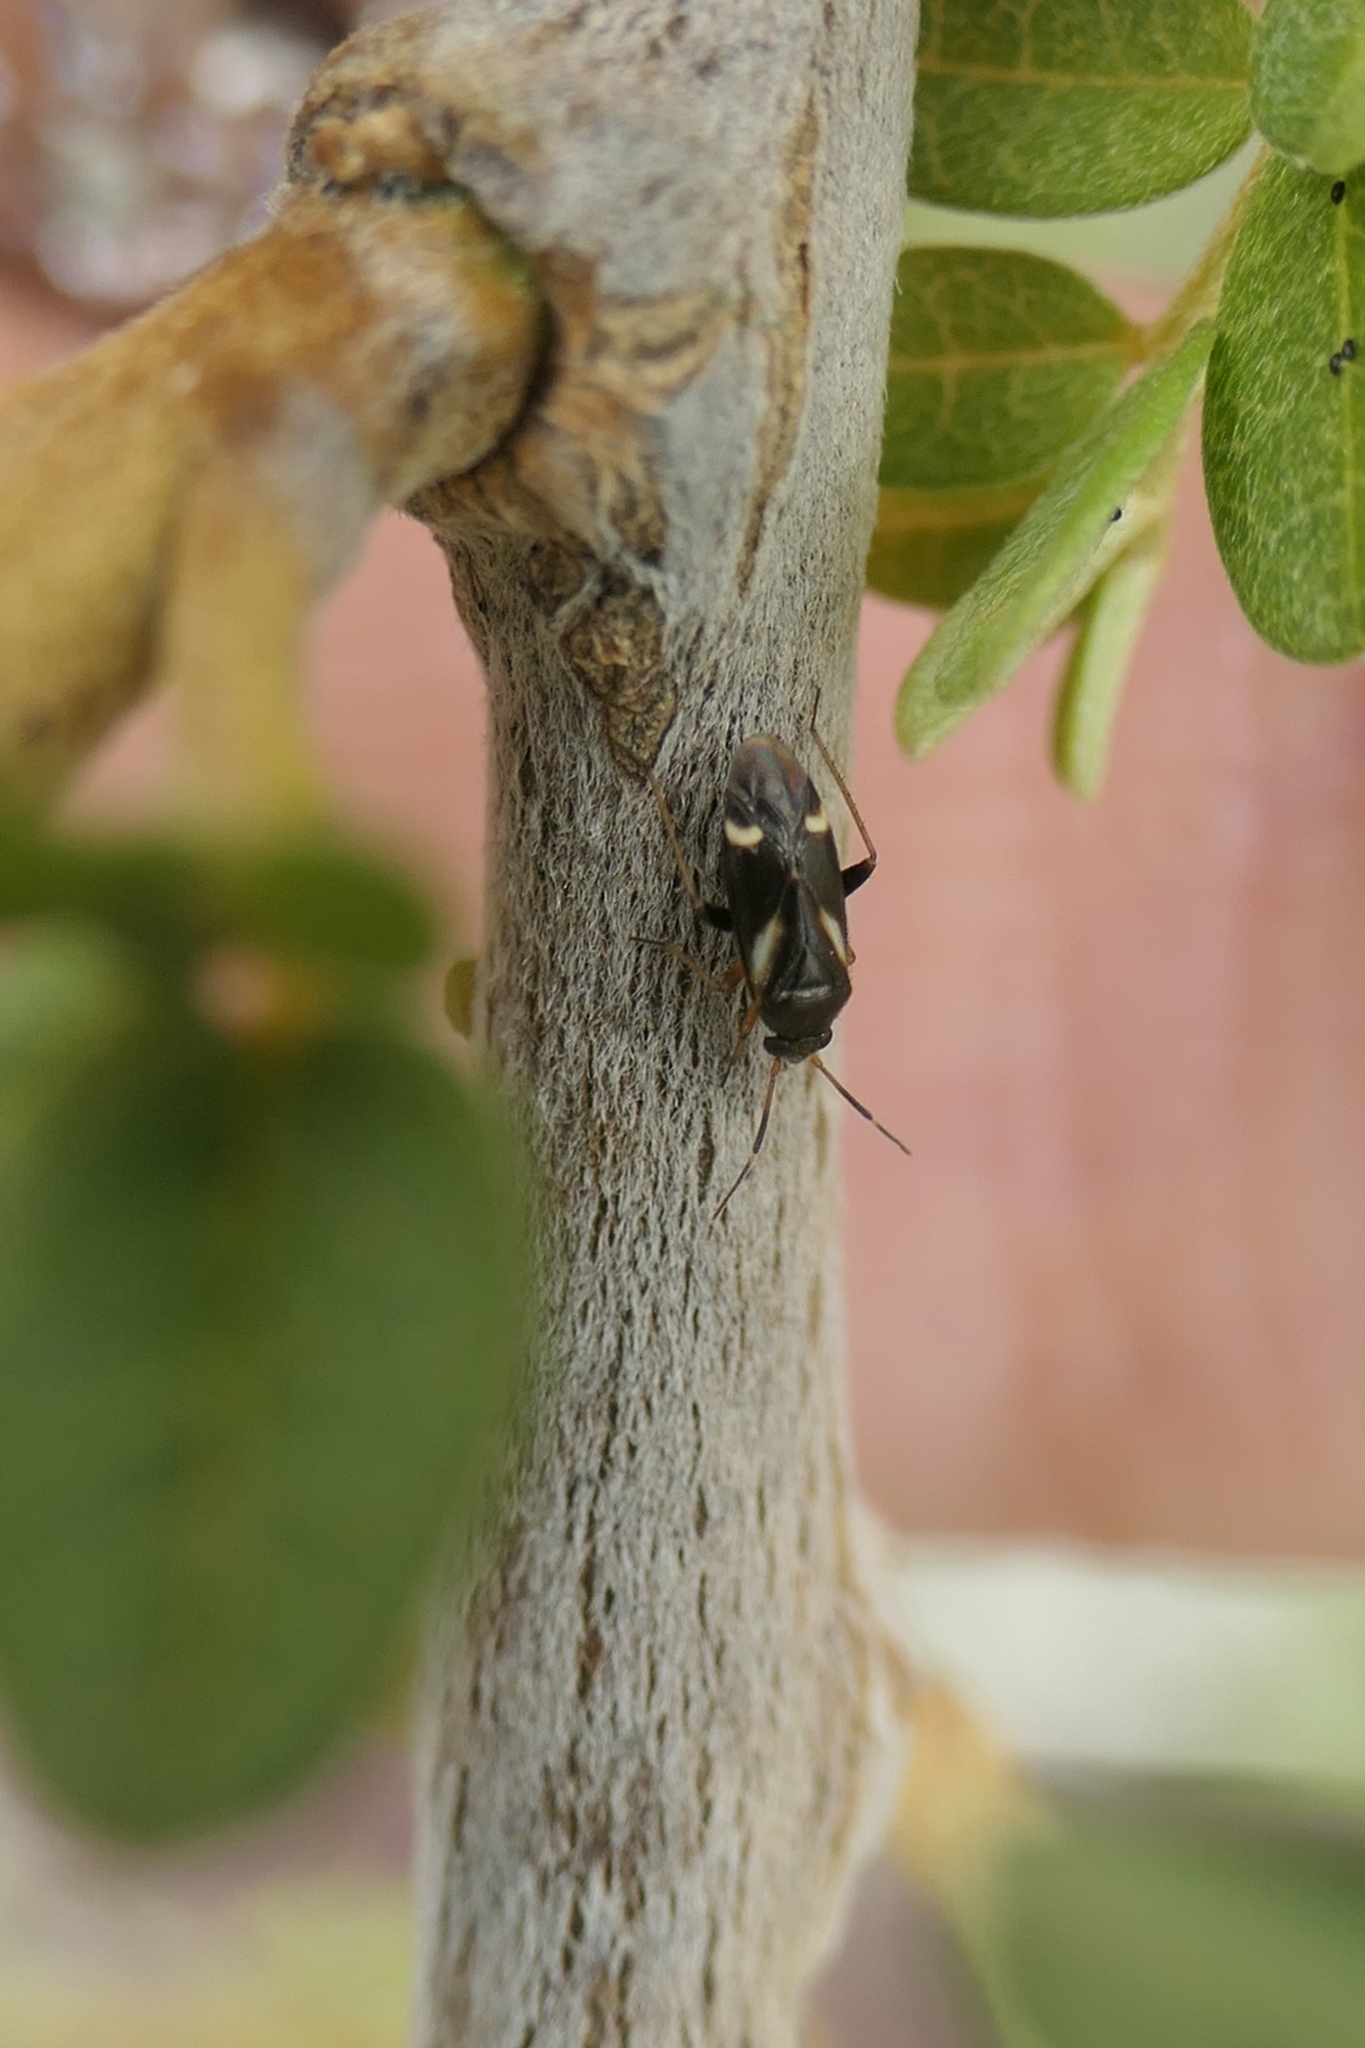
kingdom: Animalia
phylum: Arthropoda
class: Insecta
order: Hemiptera
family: Miridae
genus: Ausejanus
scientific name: Ausejanus albisignatus
